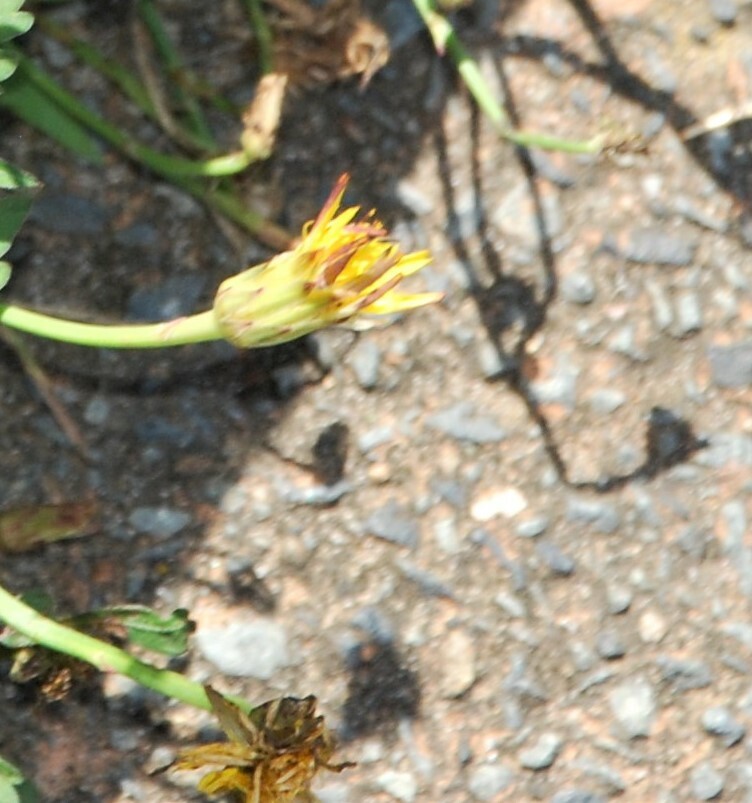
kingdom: Plantae
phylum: Tracheophyta
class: Magnoliopsida
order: Asterales
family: Asteraceae
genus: Hypochaeris
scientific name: Hypochaeris radicata
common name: Flatweed
